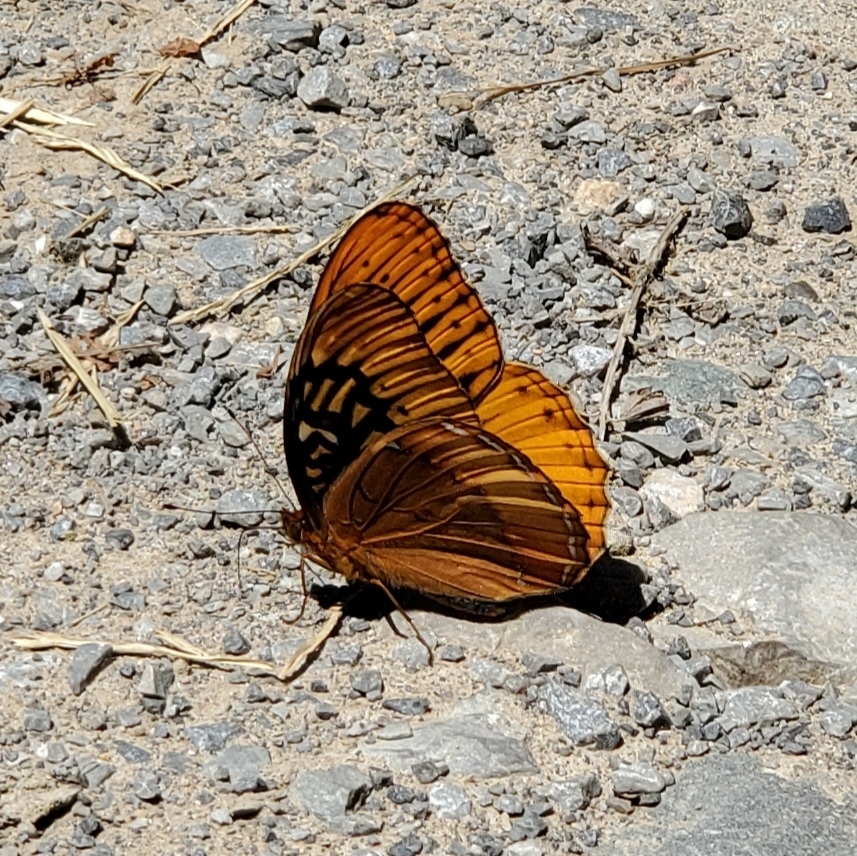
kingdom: Animalia
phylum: Arthropoda
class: Insecta
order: Lepidoptera
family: Nymphalidae
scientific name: Nymphalidae
